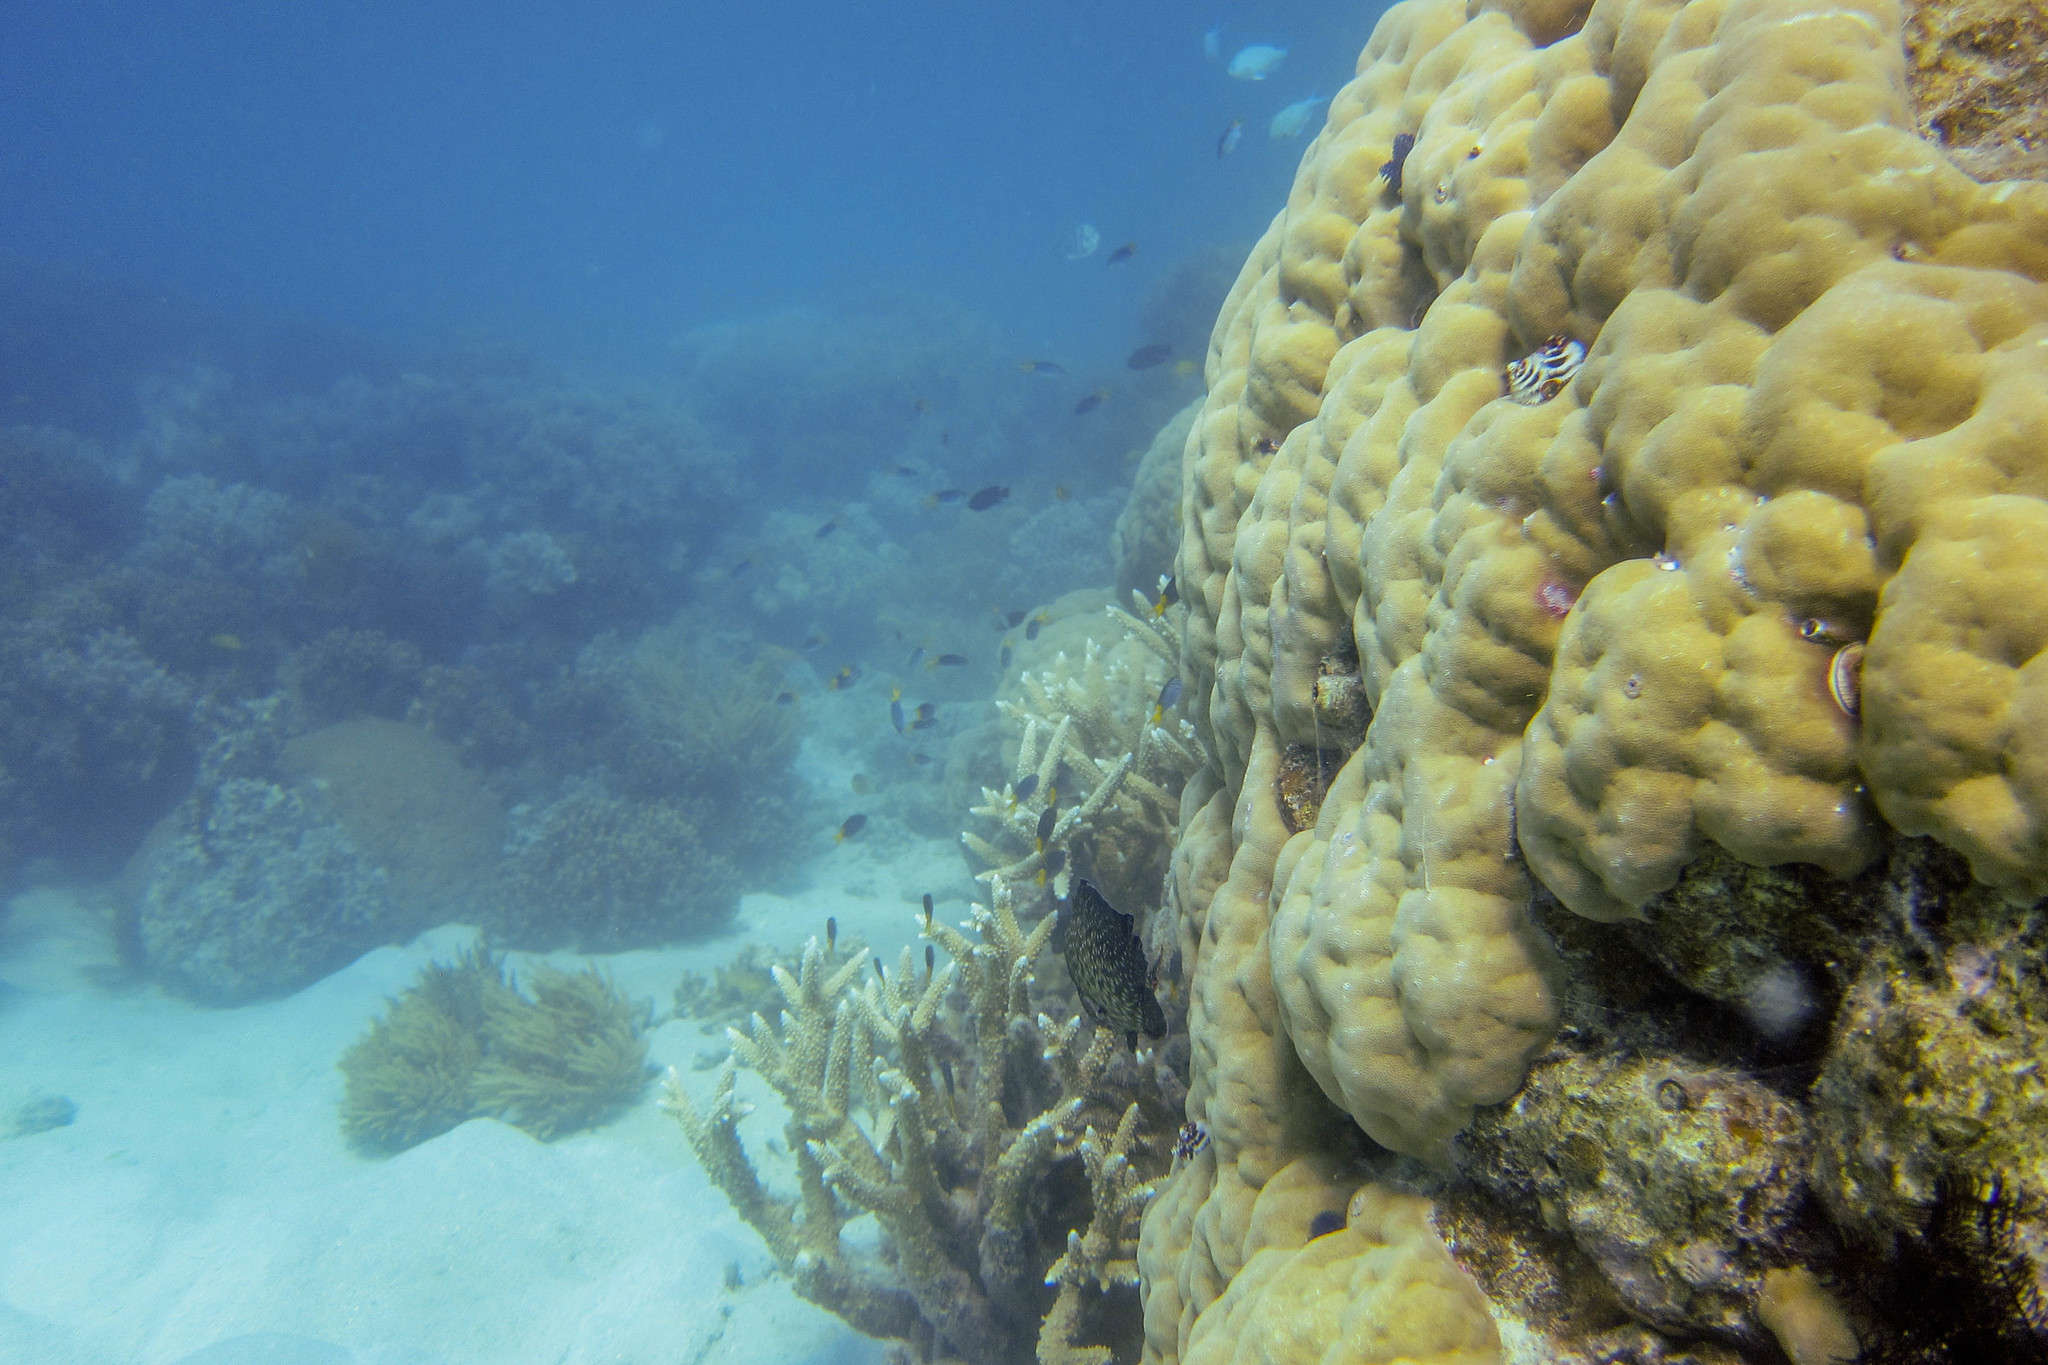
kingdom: Animalia
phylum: Annelida
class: Polychaeta
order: Sabellida
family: Serpulidae
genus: Spirobranchus
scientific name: Spirobranchus
